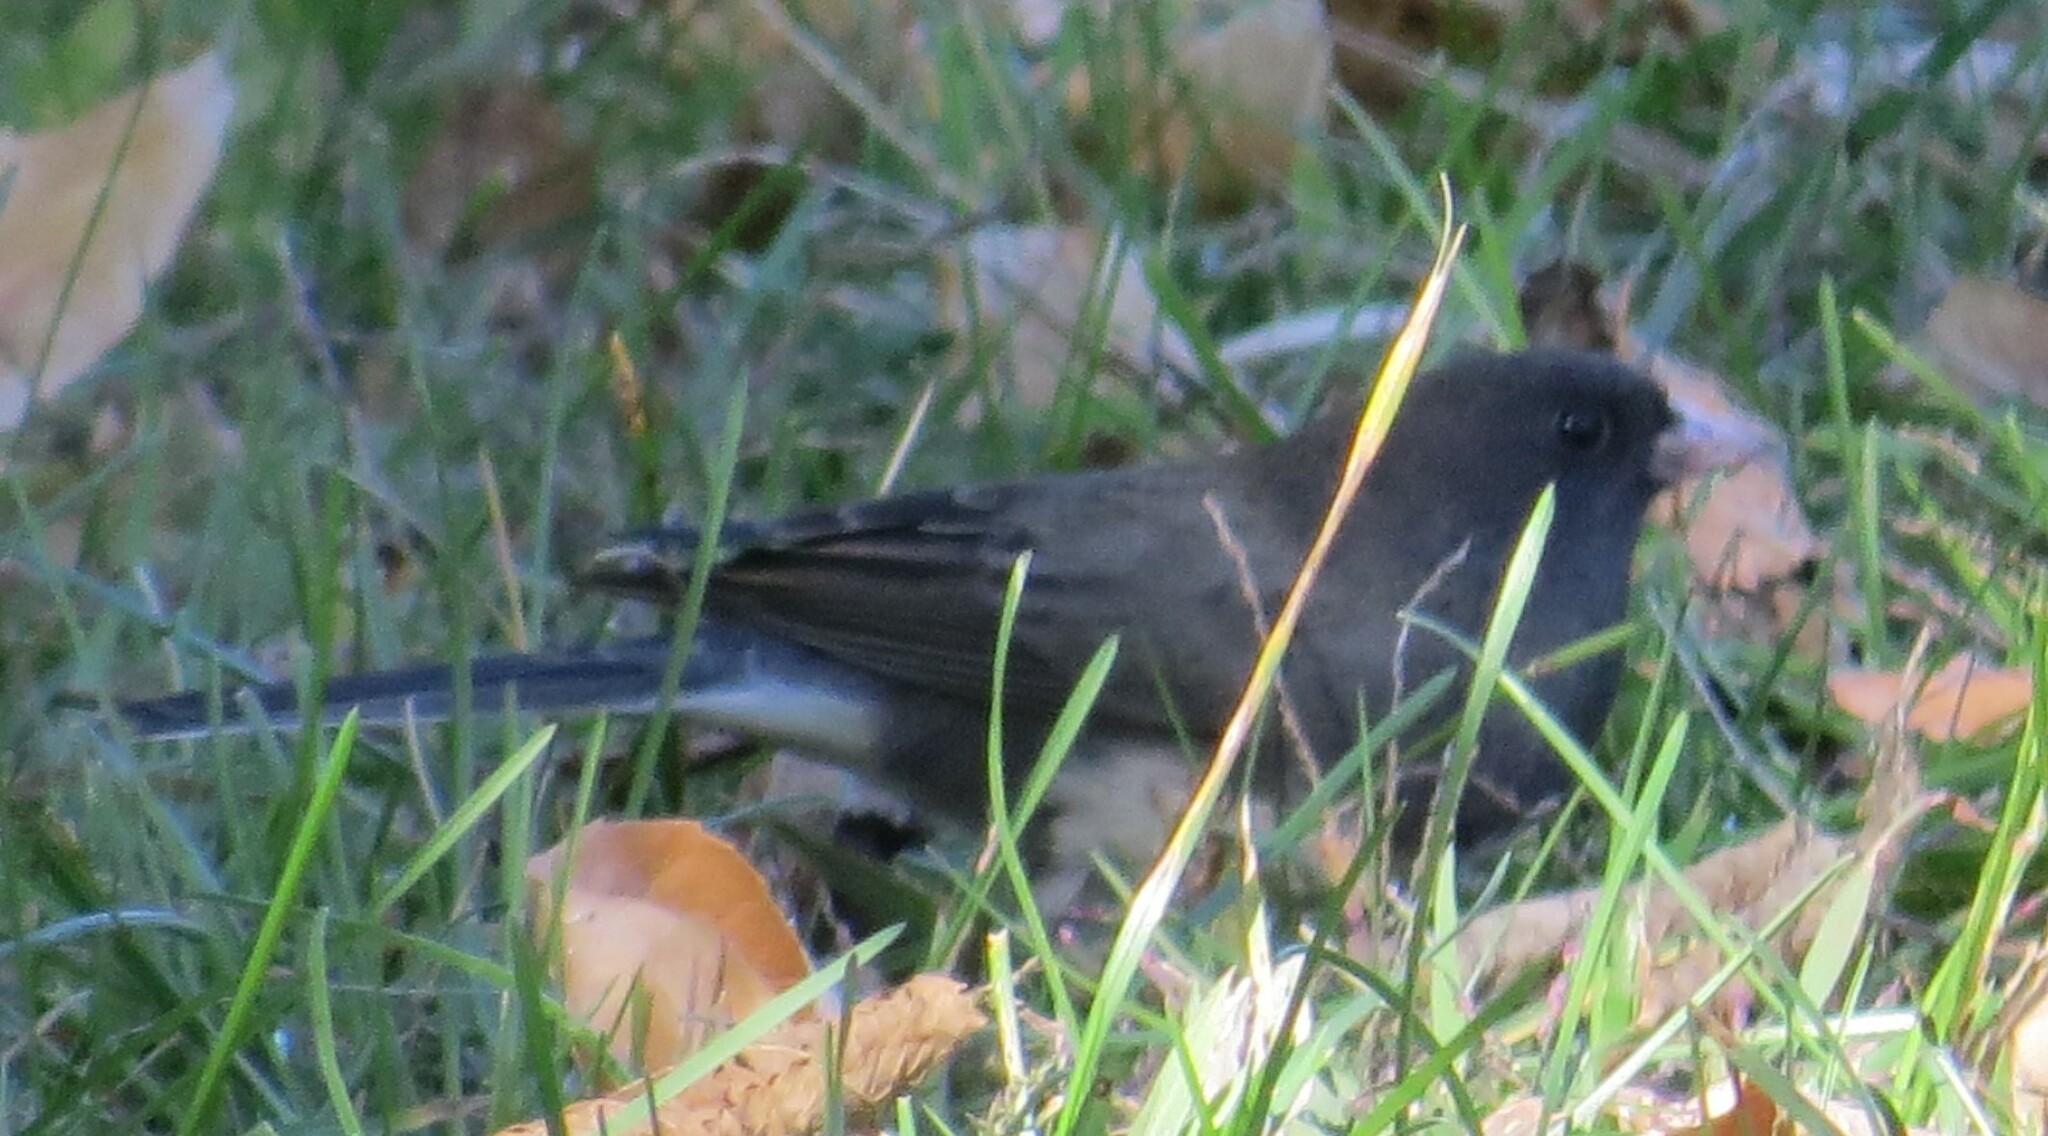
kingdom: Animalia
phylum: Chordata
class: Aves
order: Passeriformes
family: Passerellidae
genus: Junco
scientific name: Junco hyemalis
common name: Dark-eyed junco
